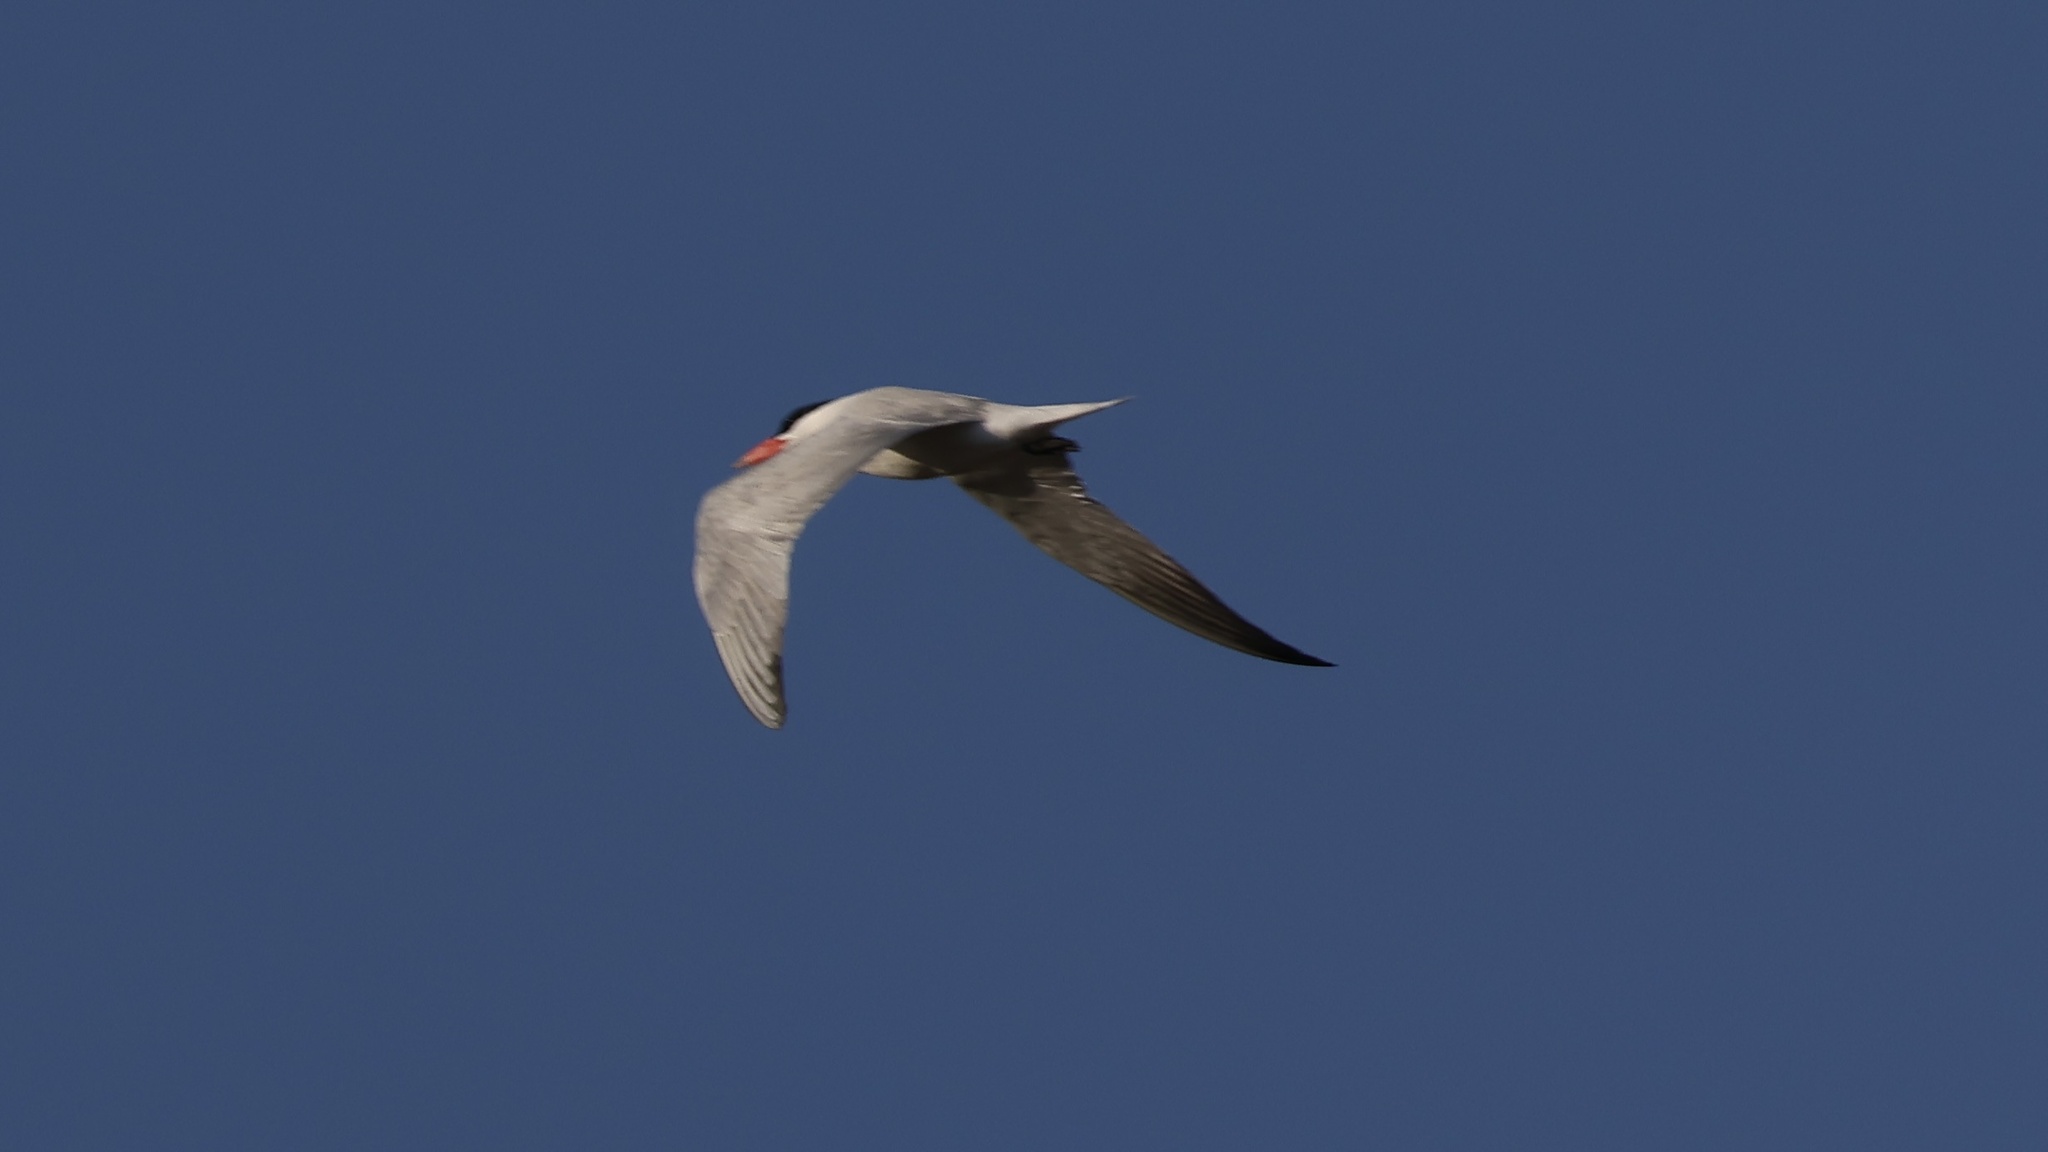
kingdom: Animalia
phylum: Chordata
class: Aves
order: Charadriiformes
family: Laridae
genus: Hydroprogne
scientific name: Hydroprogne caspia
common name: Caspian tern
